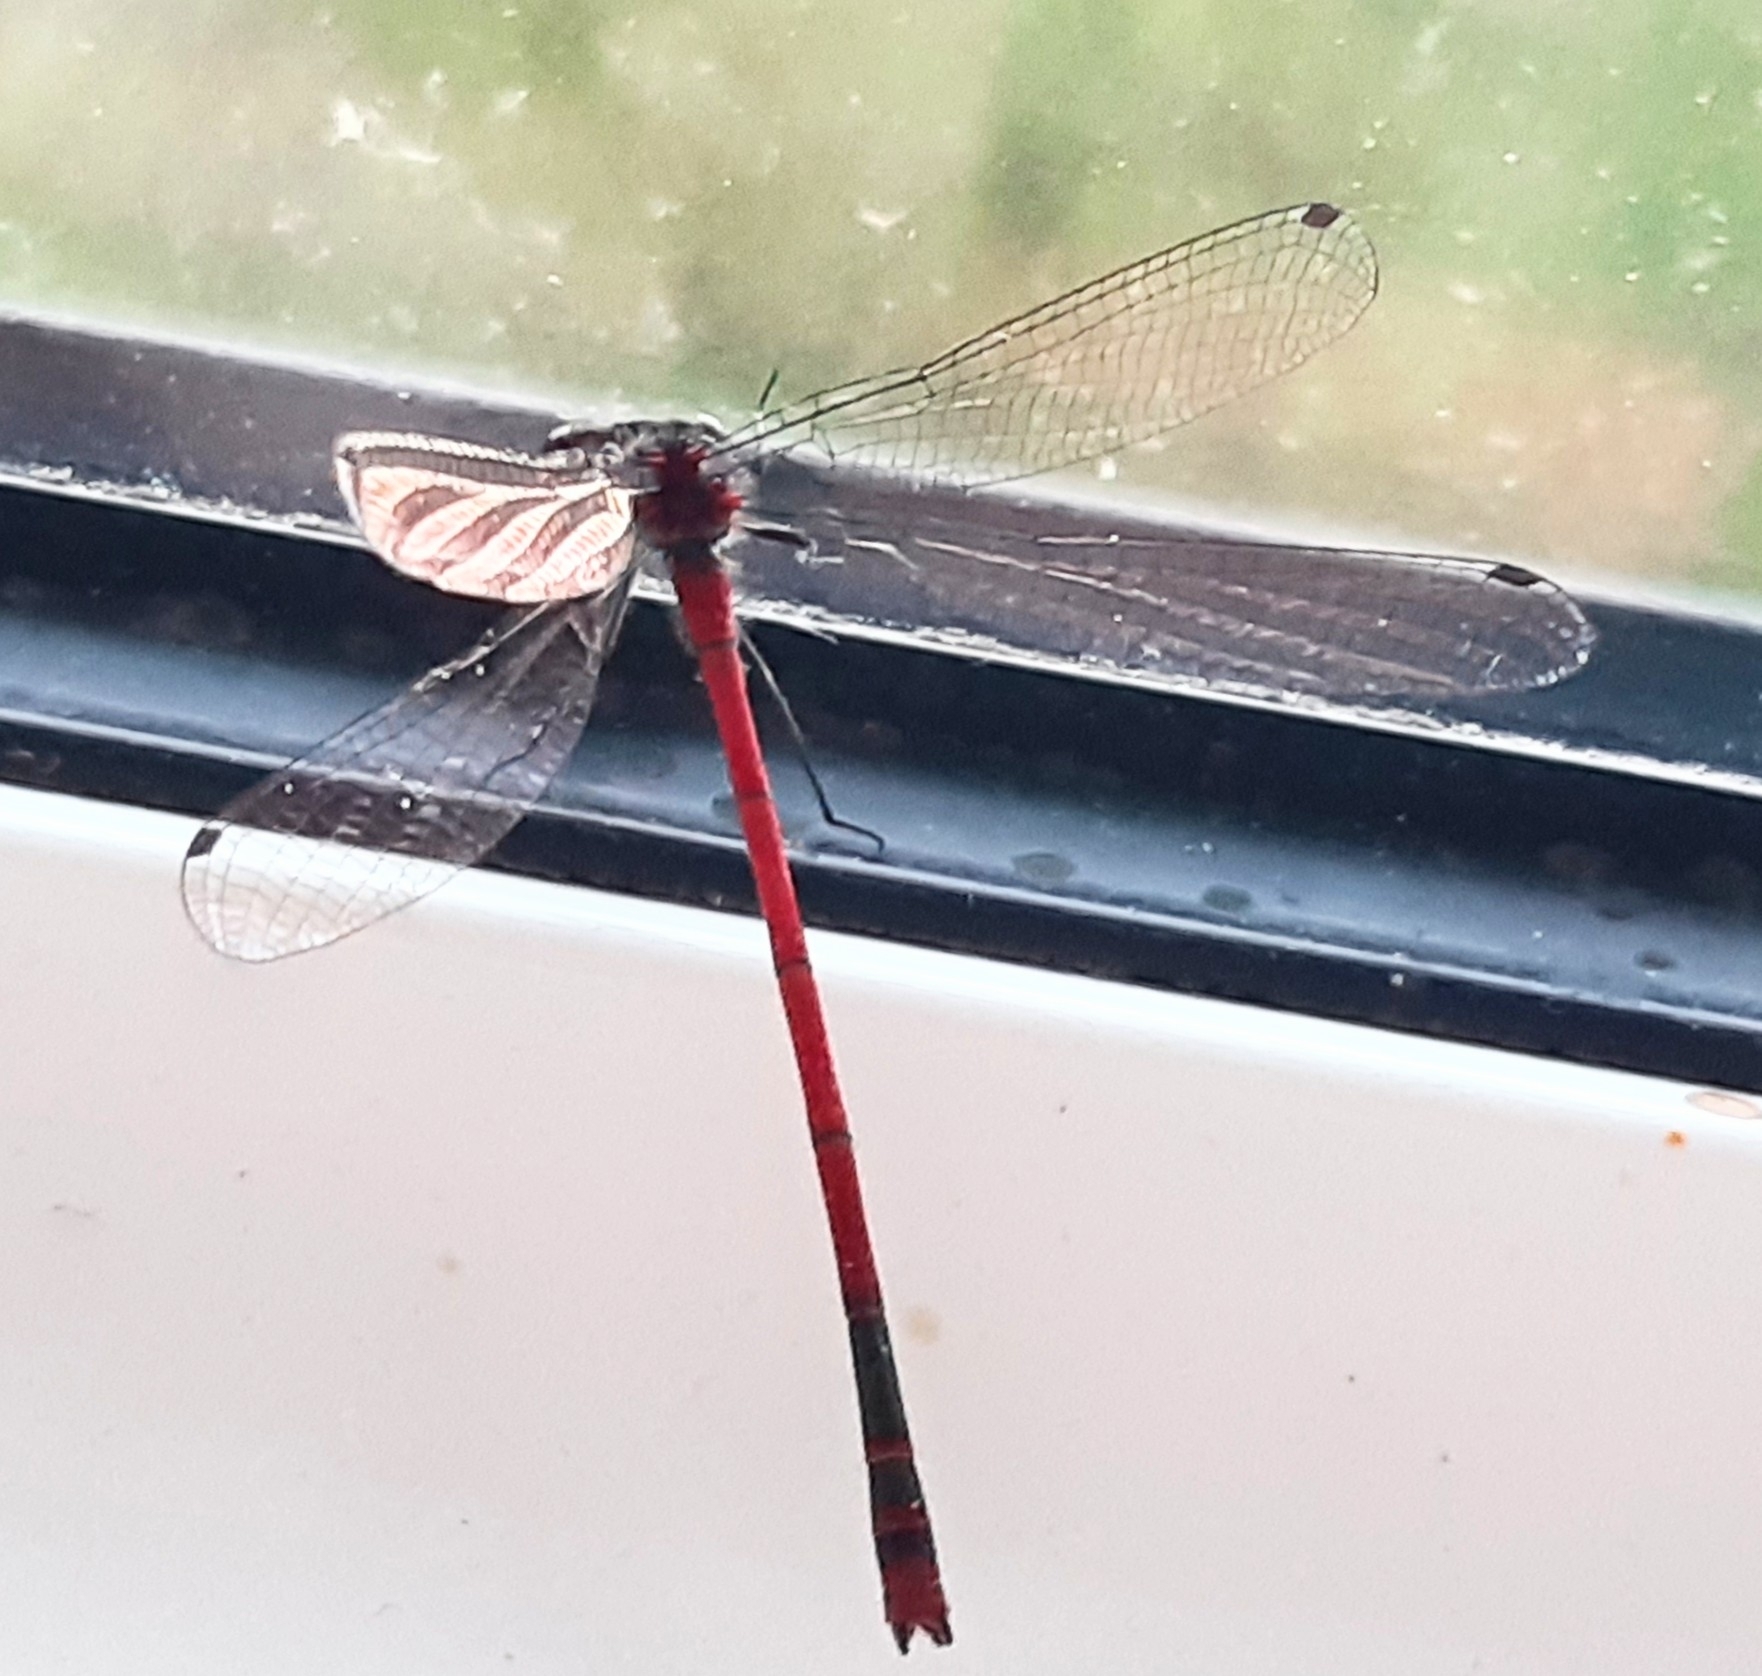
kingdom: Animalia
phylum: Arthropoda
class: Insecta
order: Odonata
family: Coenagrionidae
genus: Pyrrhosoma
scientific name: Pyrrhosoma nymphula
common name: Large red damsel
